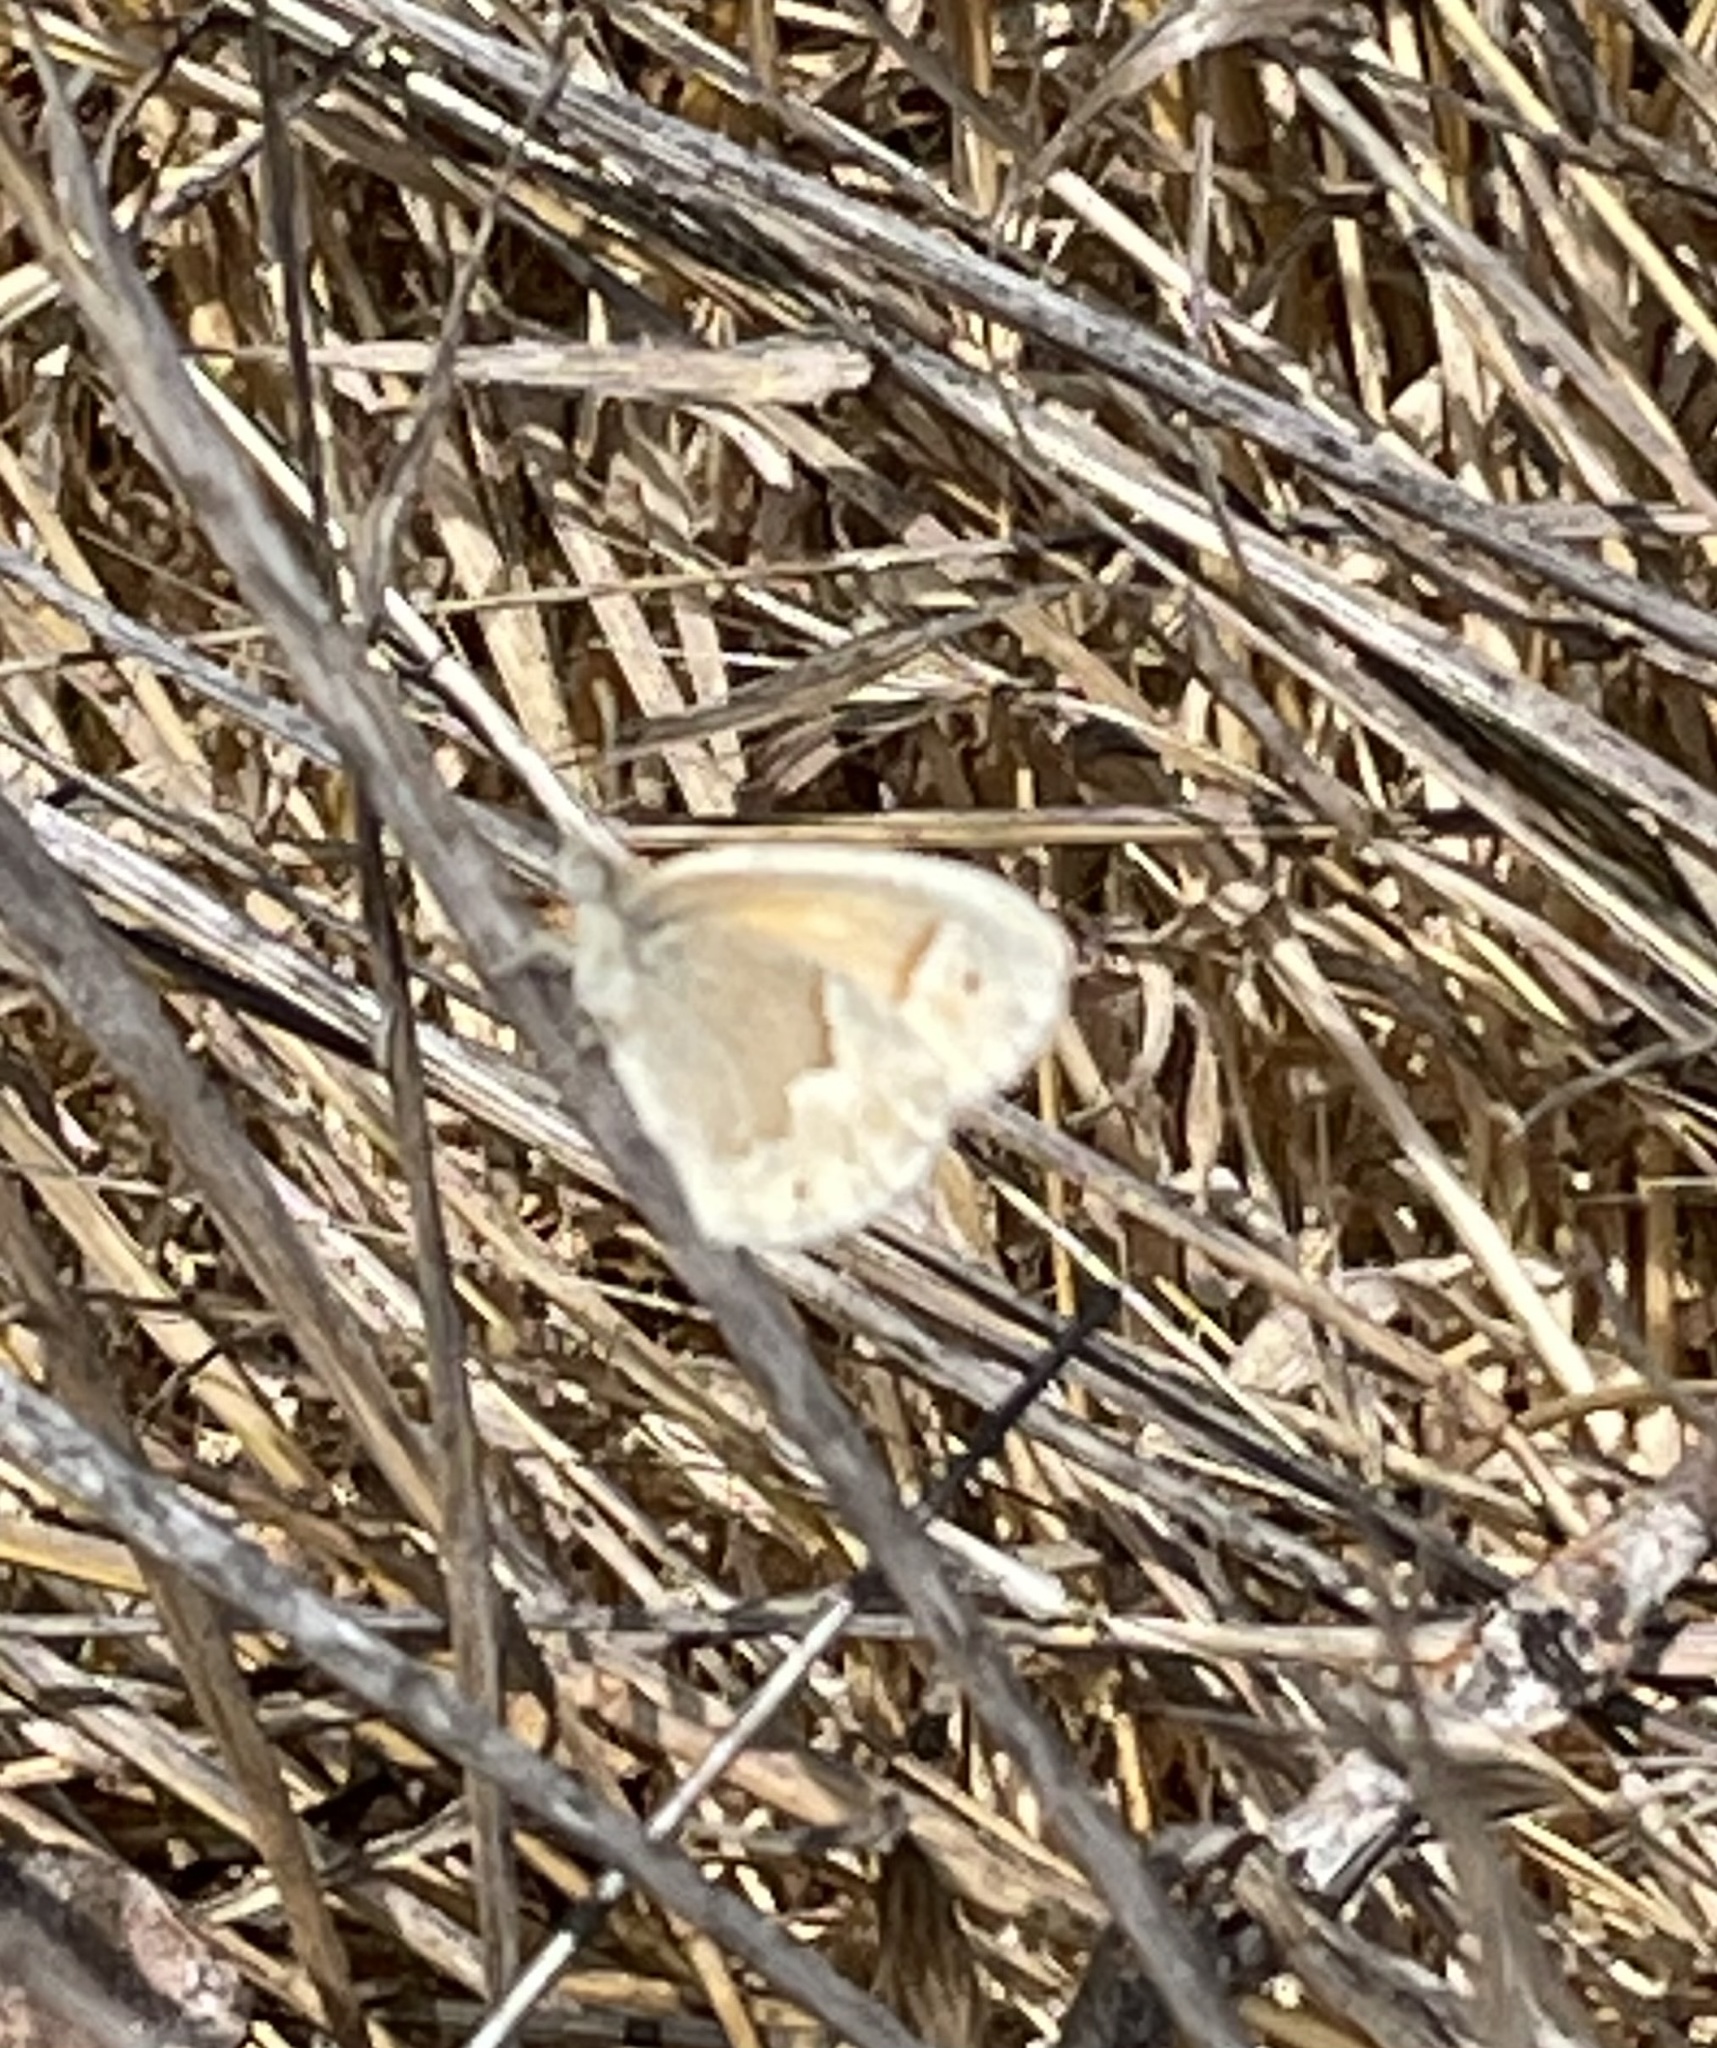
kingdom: Animalia
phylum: Arthropoda
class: Insecta
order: Lepidoptera
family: Nymphalidae
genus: Coenonympha
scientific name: Coenonympha california
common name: Common ringlet
